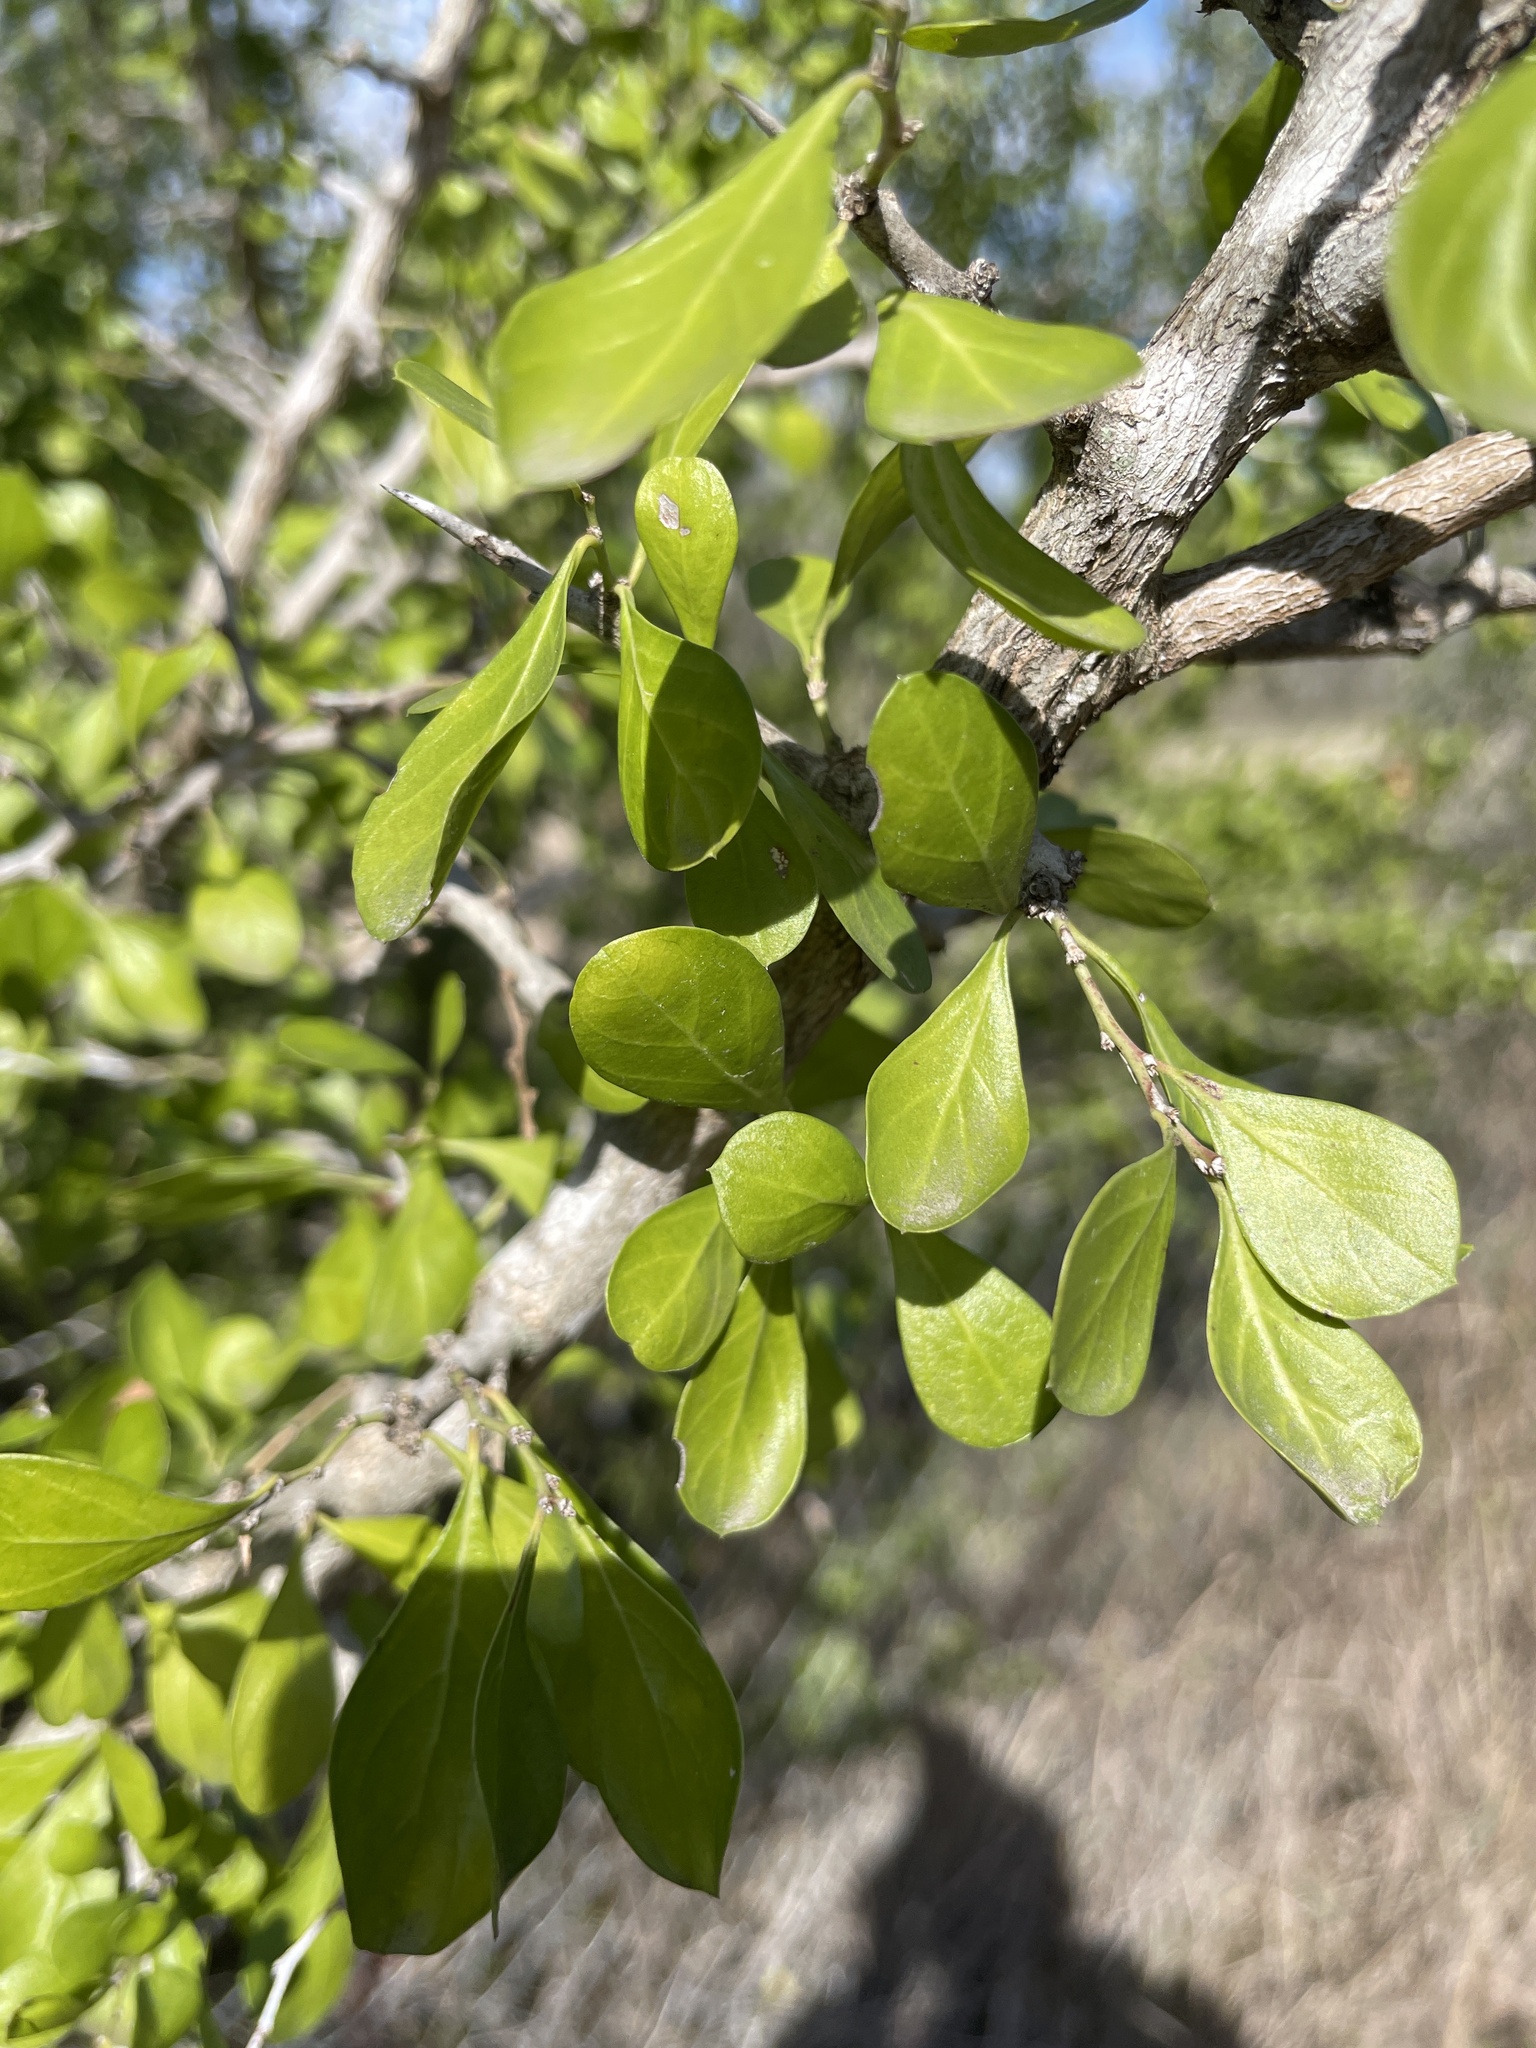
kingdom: Plantae
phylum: Tracheophyta
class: Magnoliopsida
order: Rosales
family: Rhamnaceae
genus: Condalia
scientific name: Condalia hookeri
